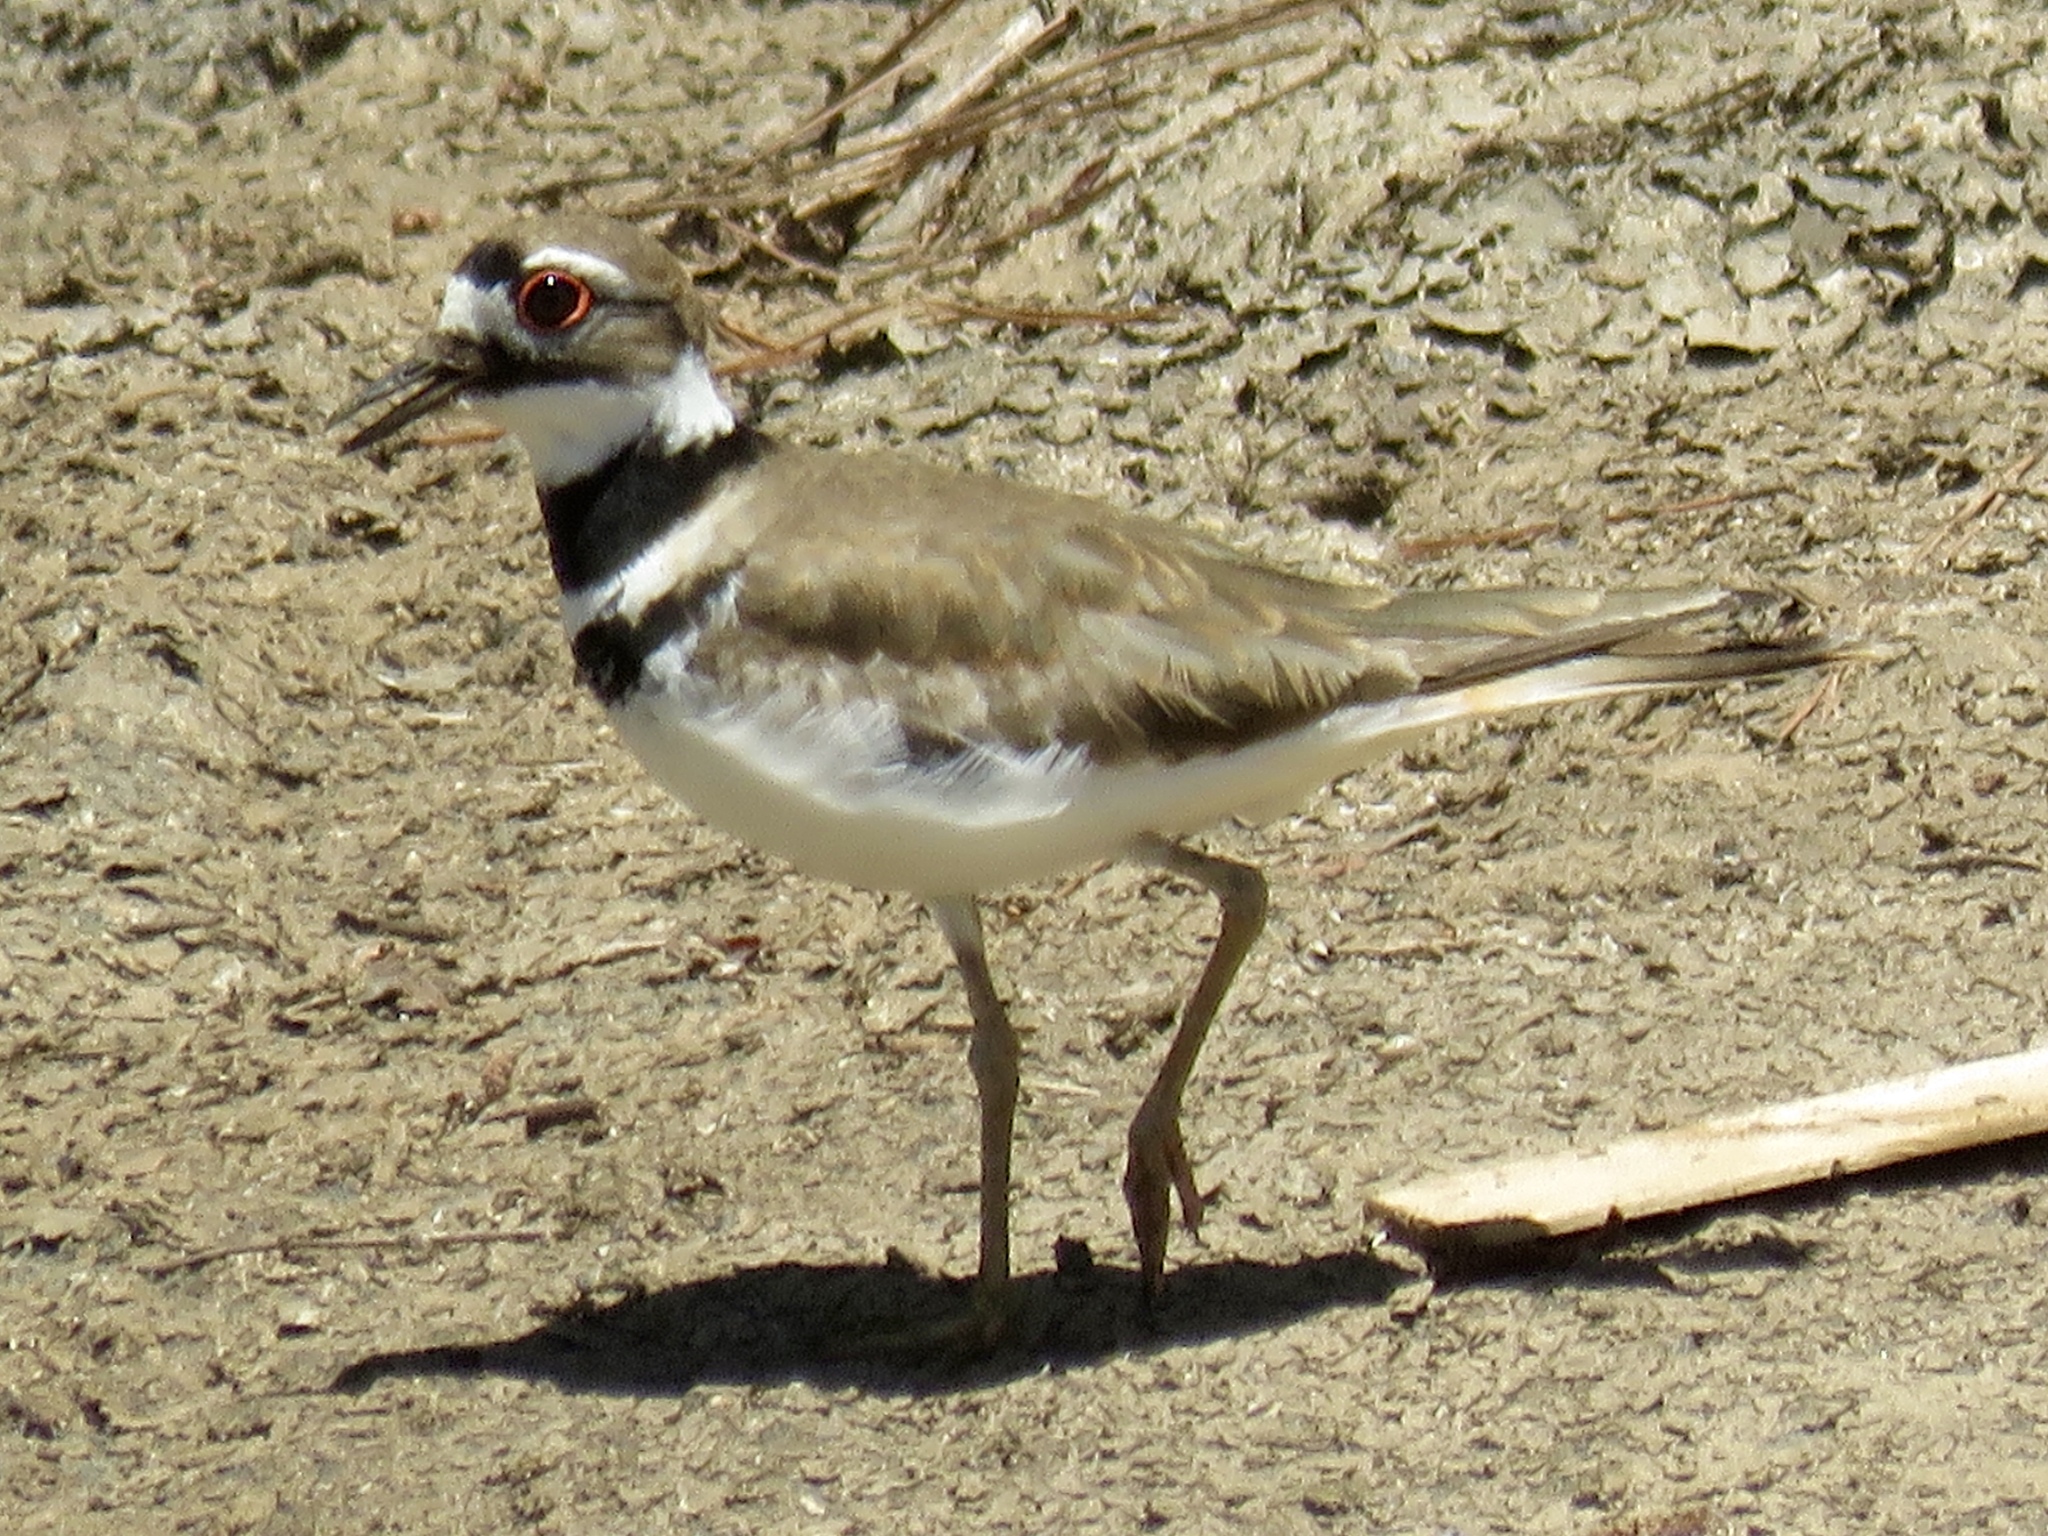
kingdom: Animalia
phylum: Chordata
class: Aves
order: Charadriiformes
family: Charadriidae
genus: Charadrius
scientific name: Charadrius vociferus
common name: Killdeer
